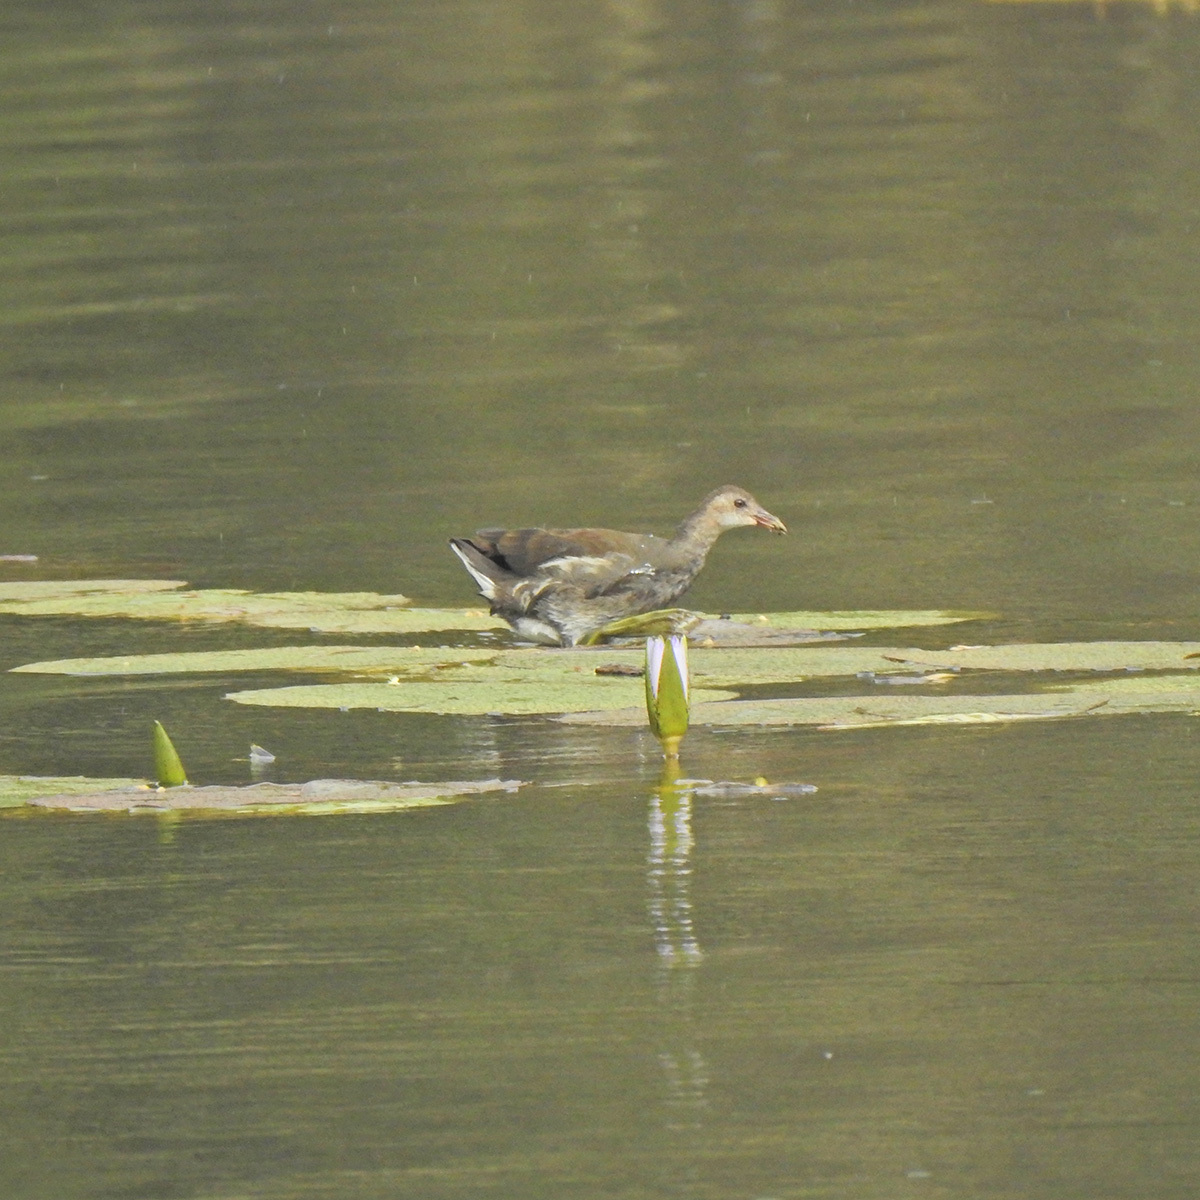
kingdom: Animalia
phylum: Chordata
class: Aves
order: Gruiformes
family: Rallidae
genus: Gallinula
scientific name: Gallinula chloropus
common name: Common moorhen
